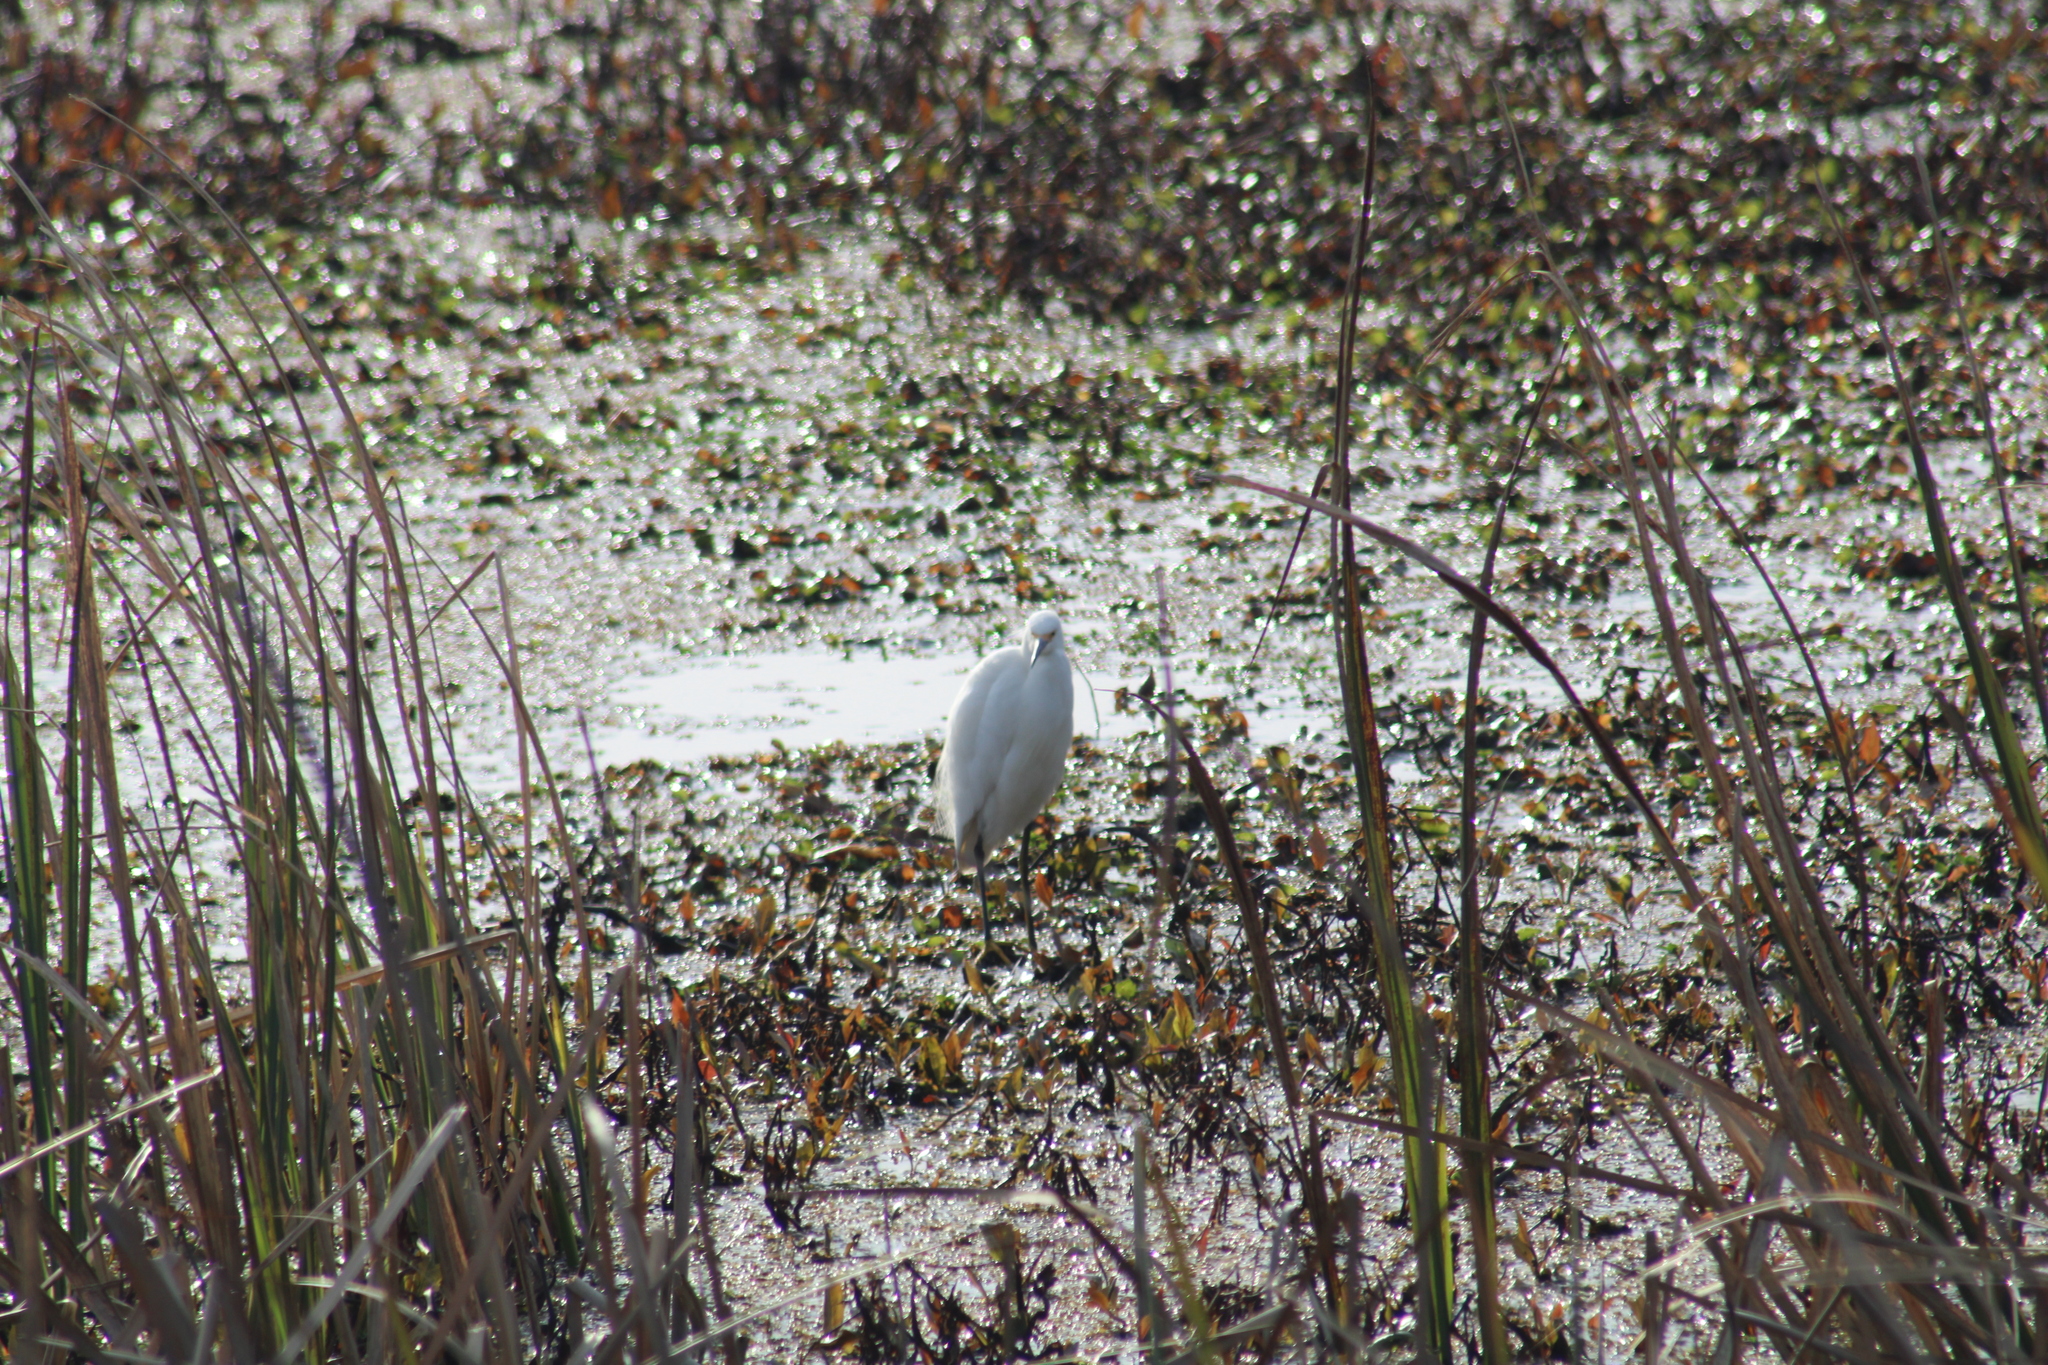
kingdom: Animalia
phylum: Chordata
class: Aves
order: Pelecaniformes
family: Ardeidae
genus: Egretta
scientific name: Egretta thula
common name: Snowy egret
